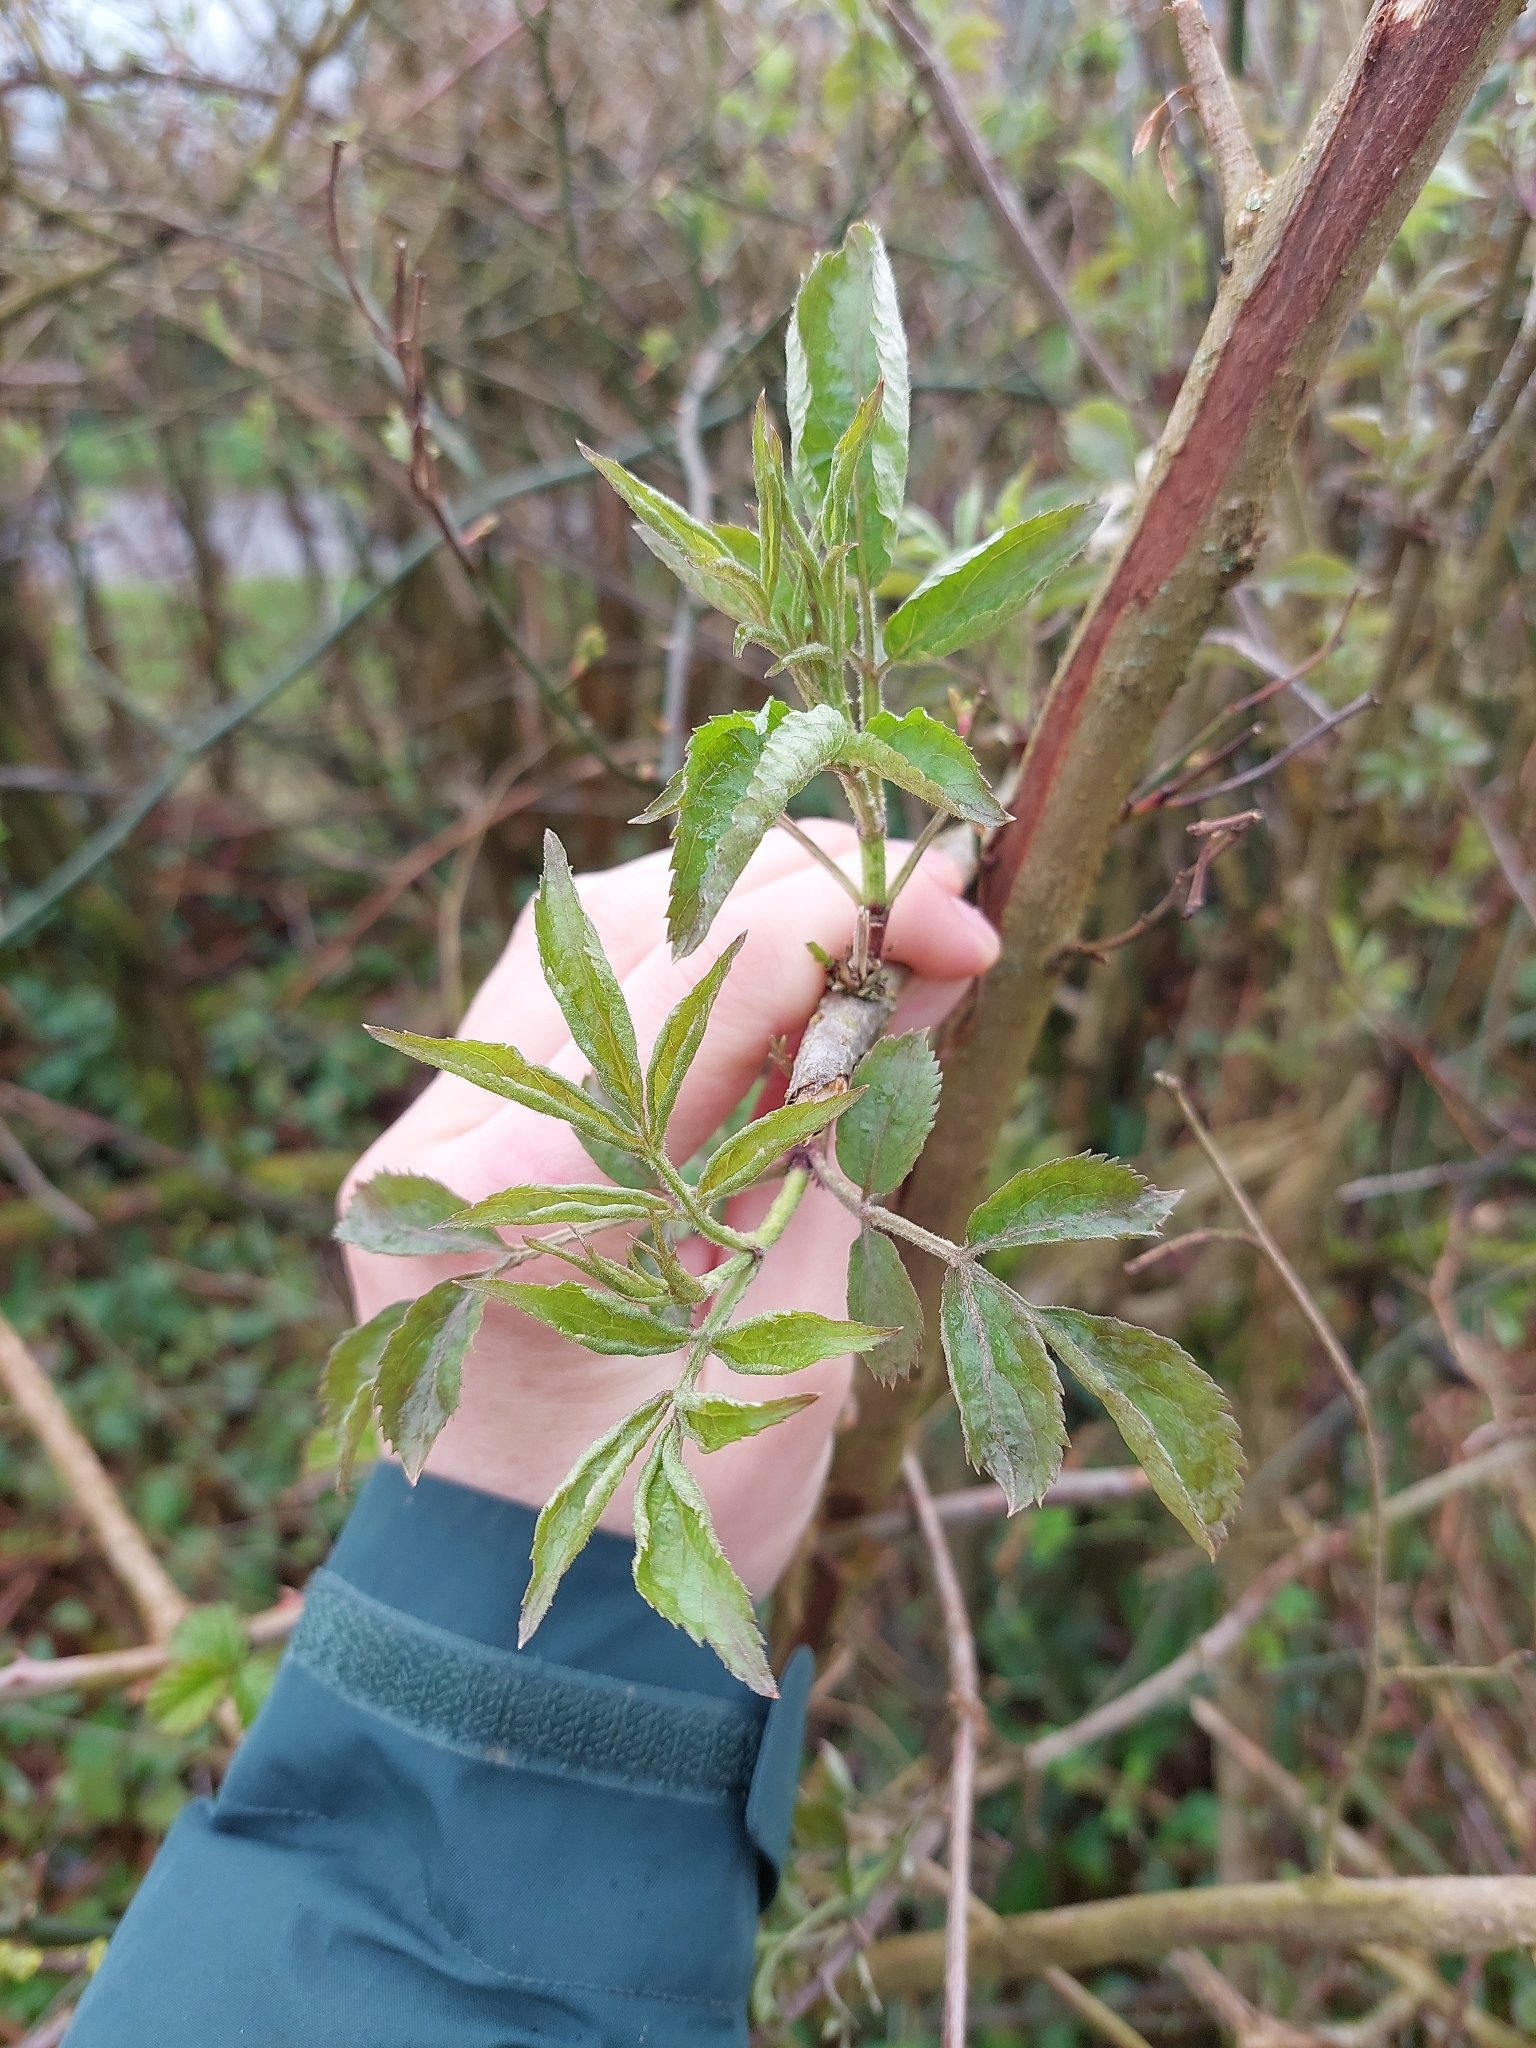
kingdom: Plantae
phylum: Tracheophyta
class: Magnoliopsida
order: Dipsacales
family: Viburnaceae
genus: Sambucus
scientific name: Sambucus nigra
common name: Elder
